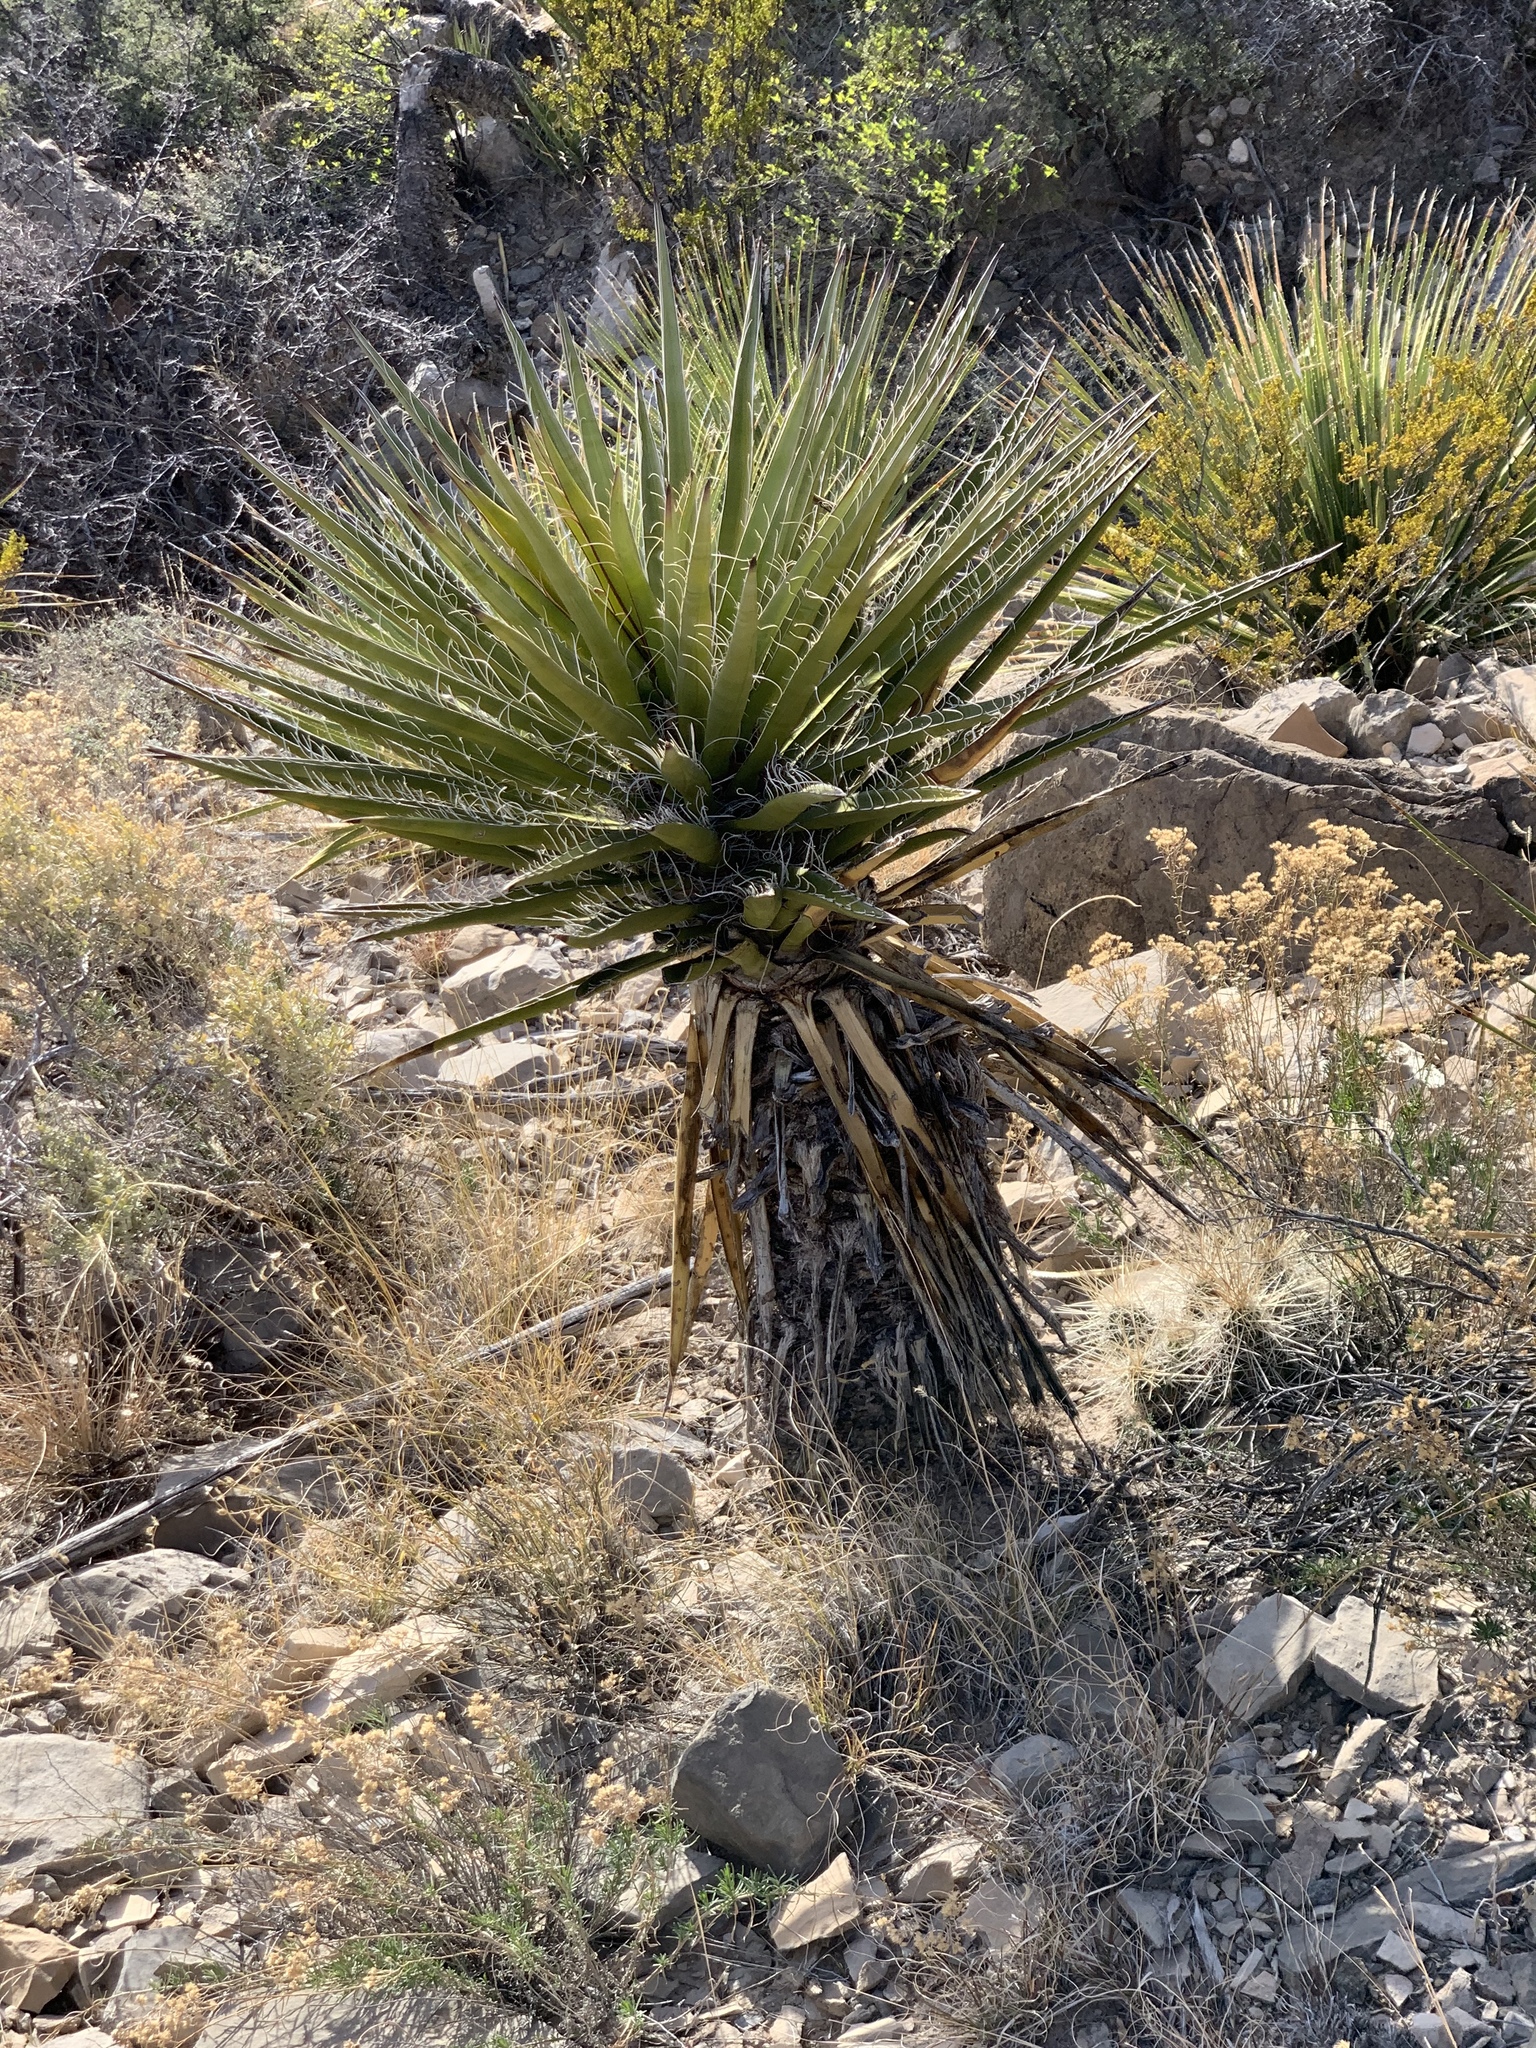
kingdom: Plantae
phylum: Tracheophyta
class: Liliopsida
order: Asparagales
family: Asparagaceae
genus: Yucca
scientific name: Yucca treculiana
